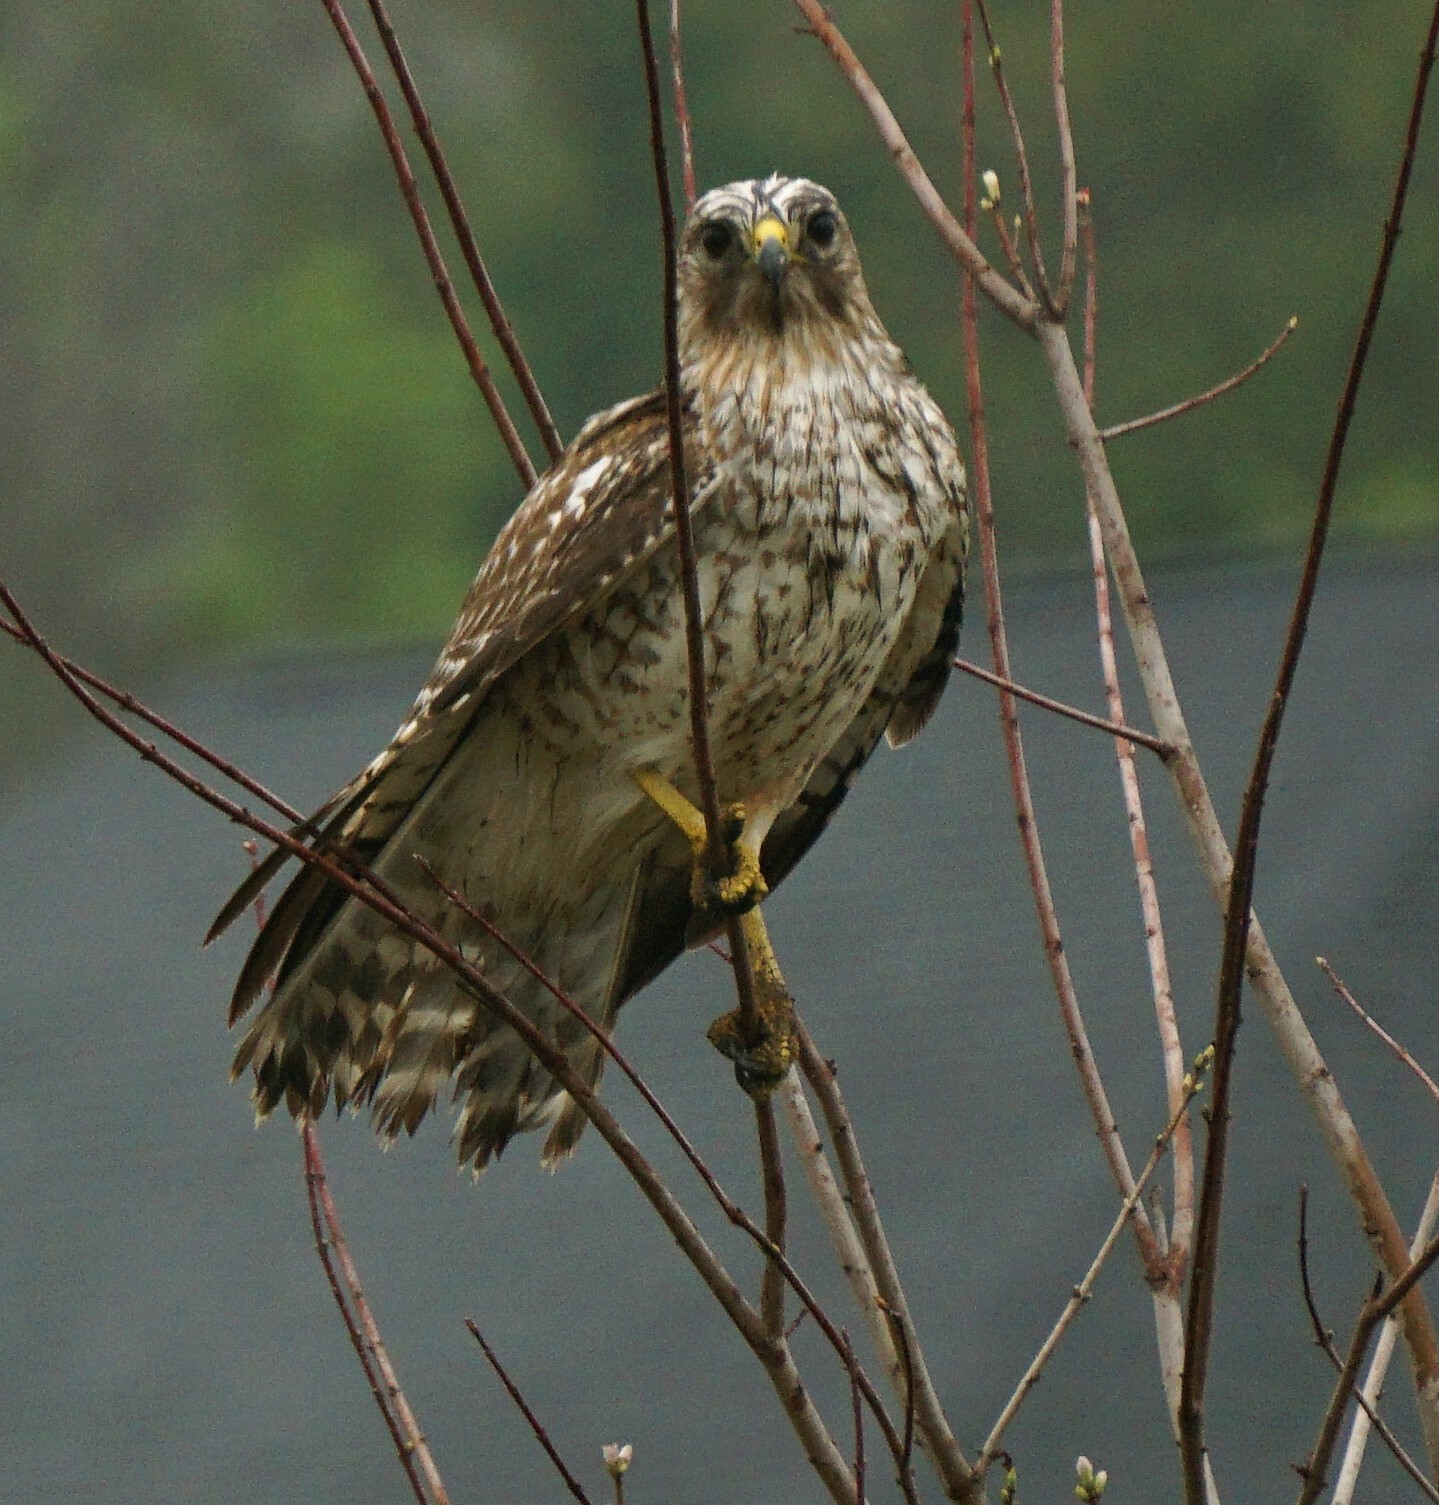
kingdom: Animalia
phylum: Chordata
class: Aves
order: Accipitriformes
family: Accipitridae
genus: Buteo
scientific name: Buteo lineatus
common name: Red-shouldered hawk
